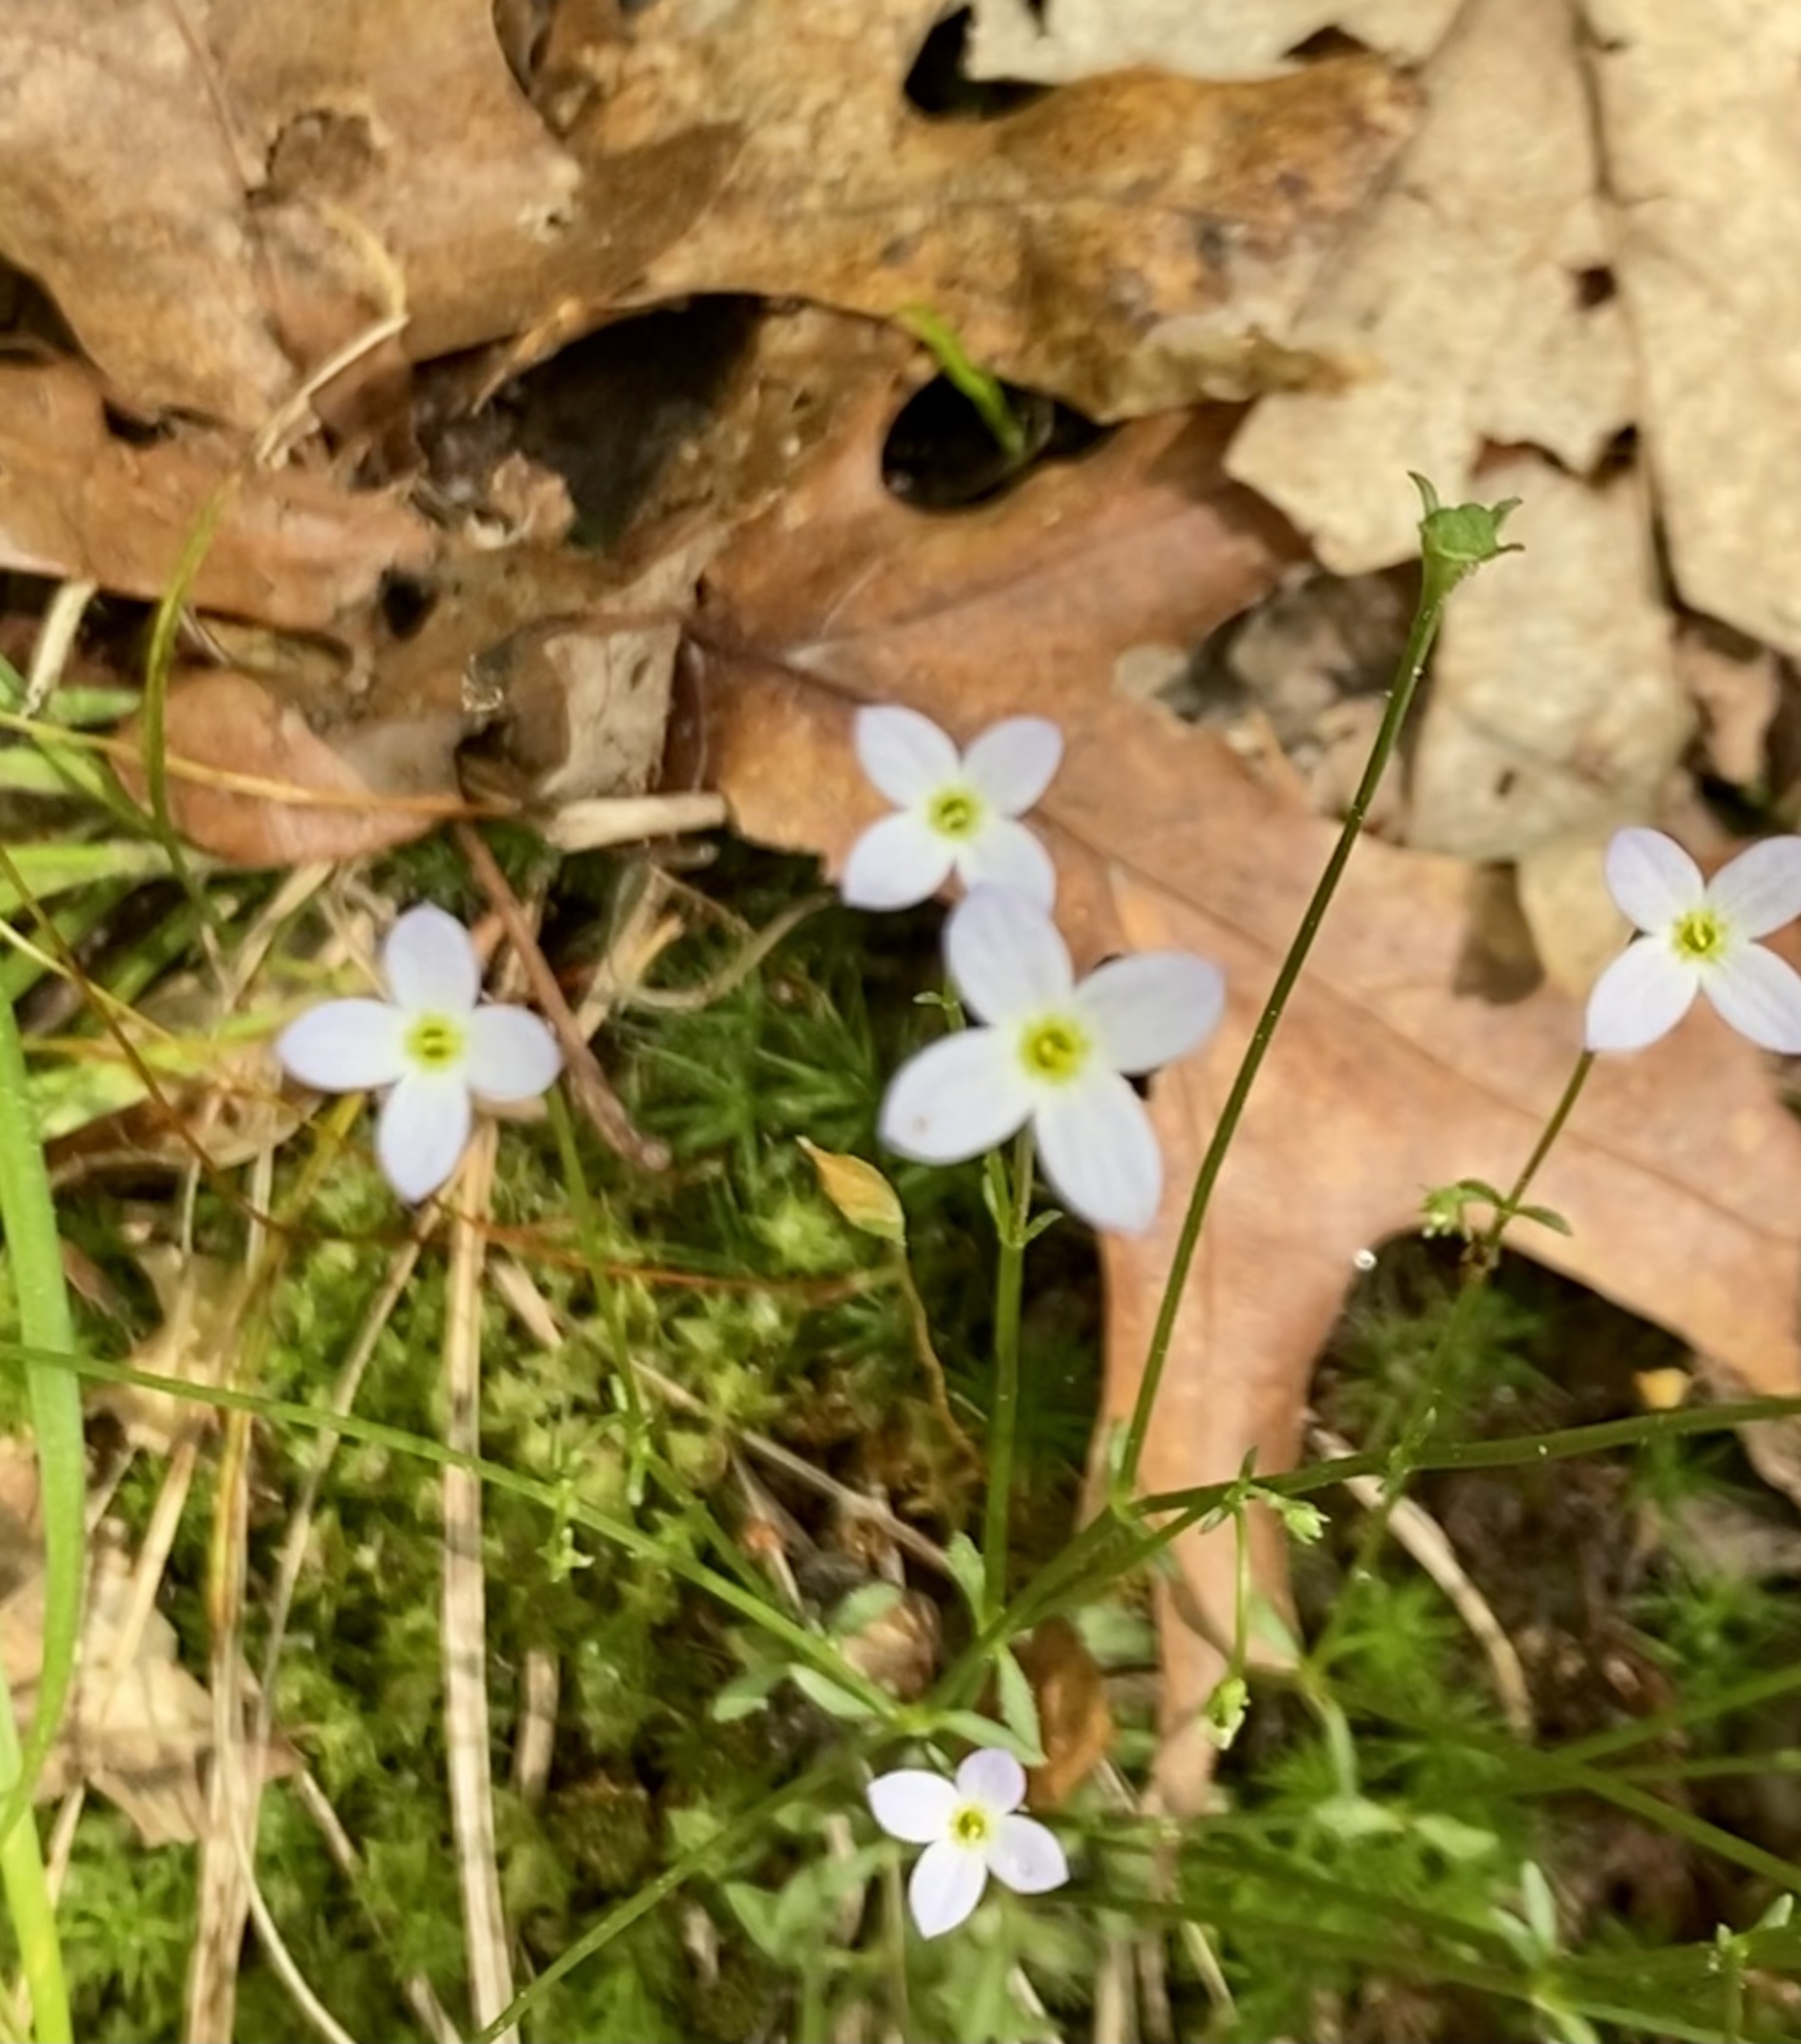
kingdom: Plantae
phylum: Tracheophyta
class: Magnoliopsida
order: Gentianales
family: Rubiaceae
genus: Houstonia
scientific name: Houstonia caerulea
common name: Bluets
